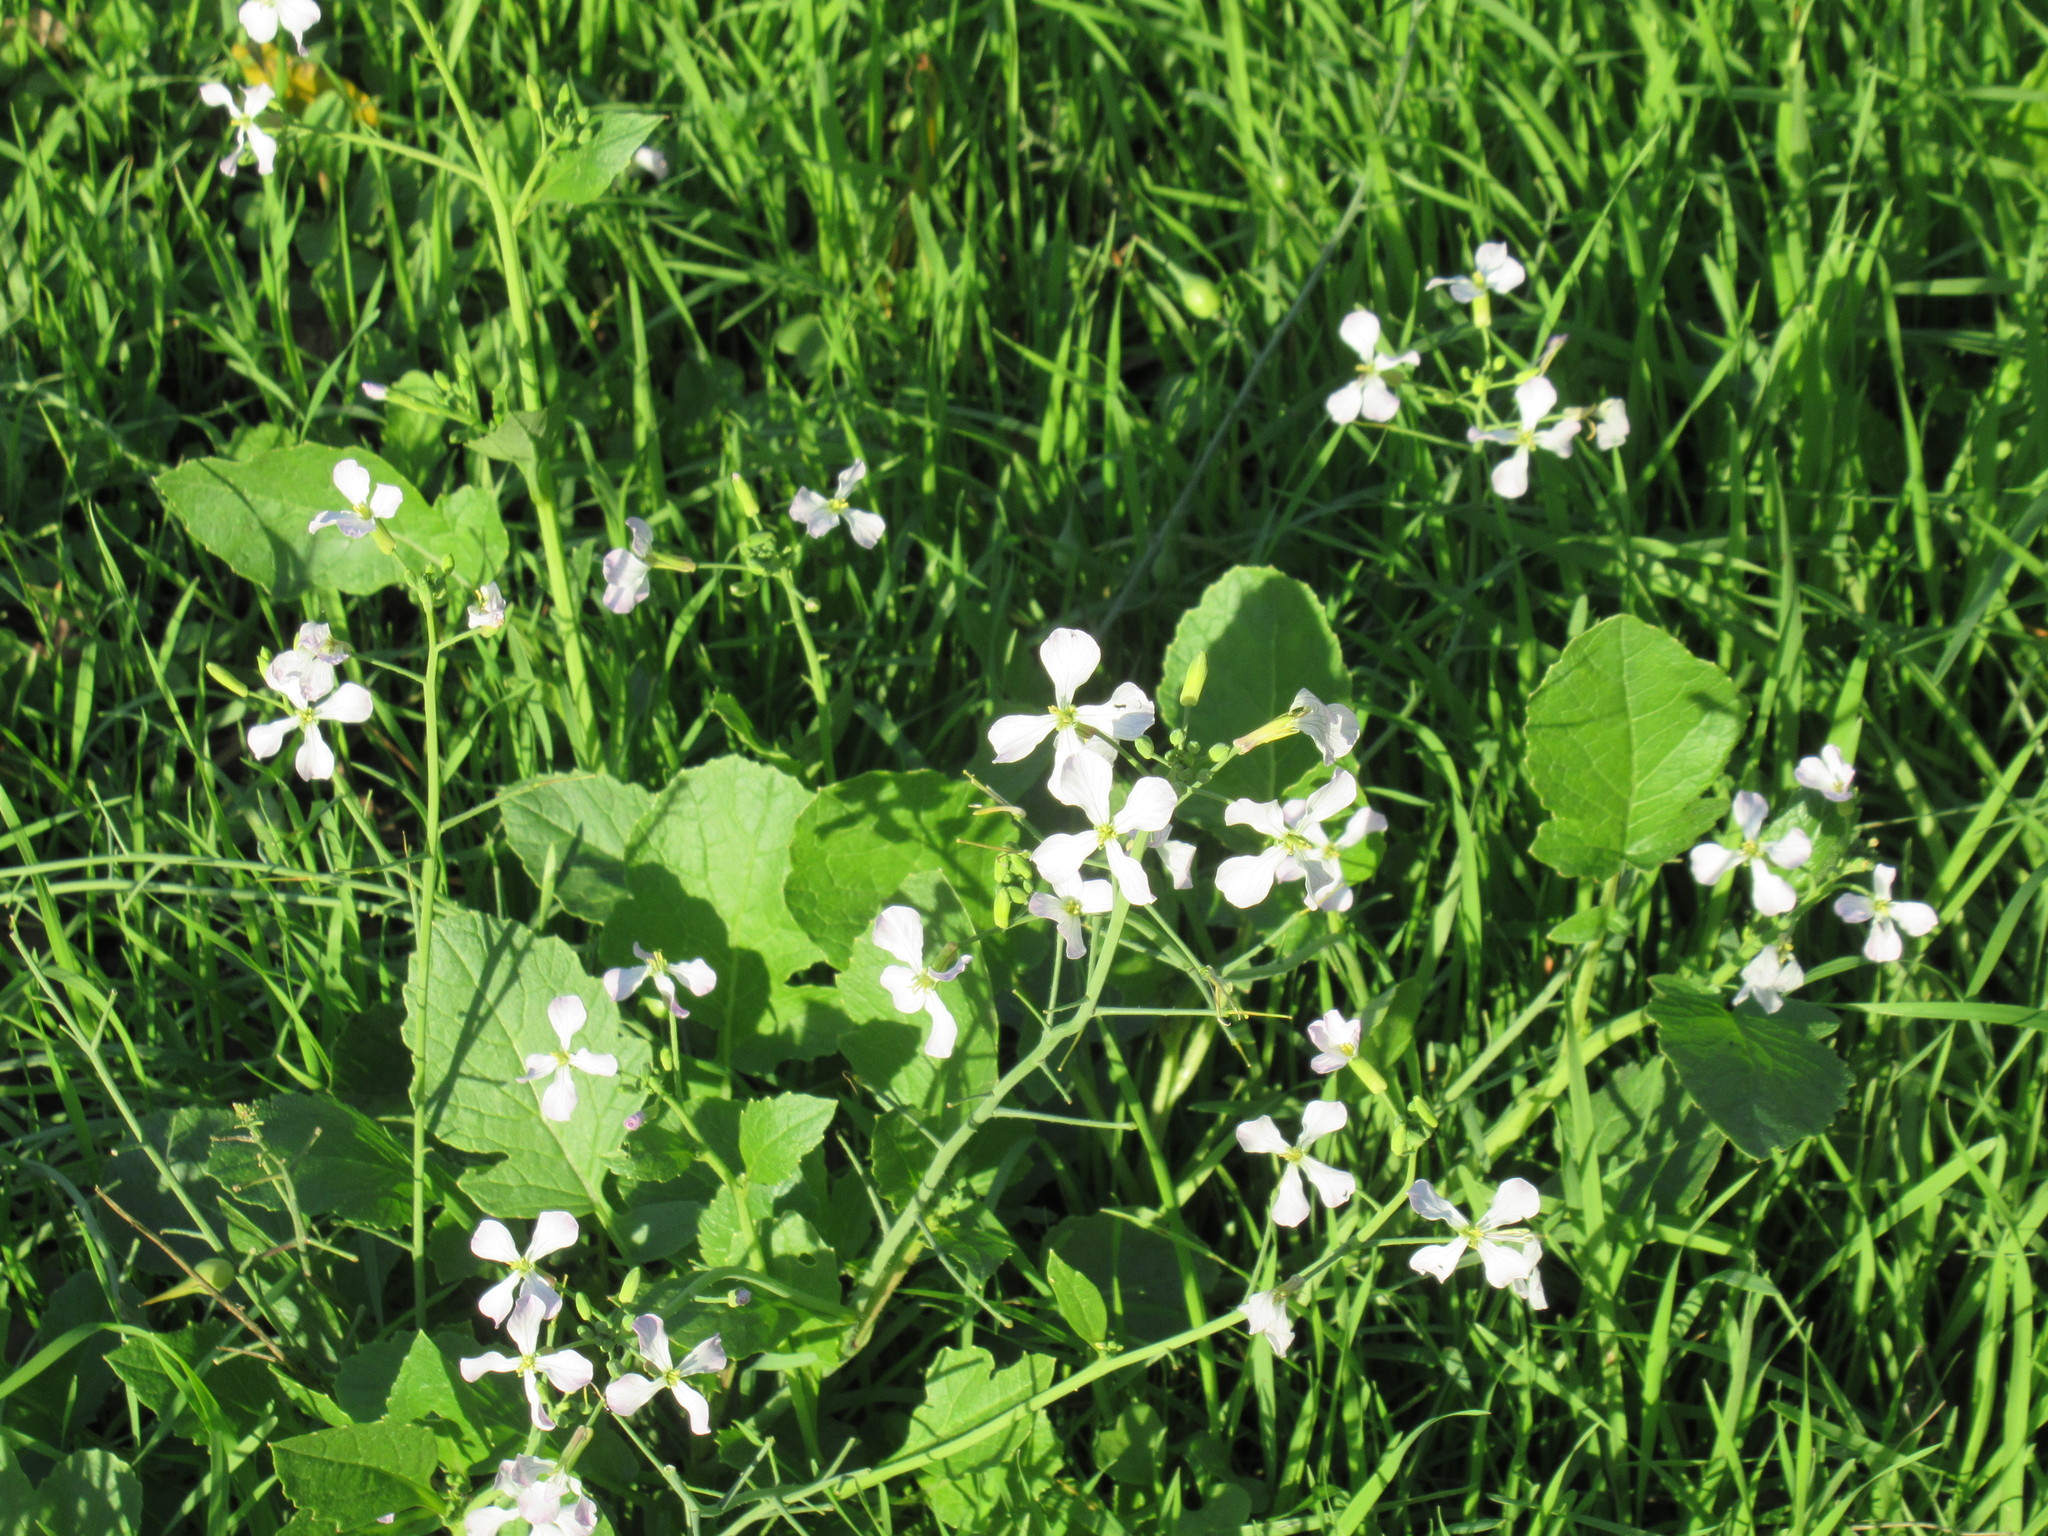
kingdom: Plantae
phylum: Tracheophyta
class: Magnoliopsida
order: Brassicales
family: Brassicaceae
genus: Raphanus
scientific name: Raphanus sativus
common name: Cultivated radish
